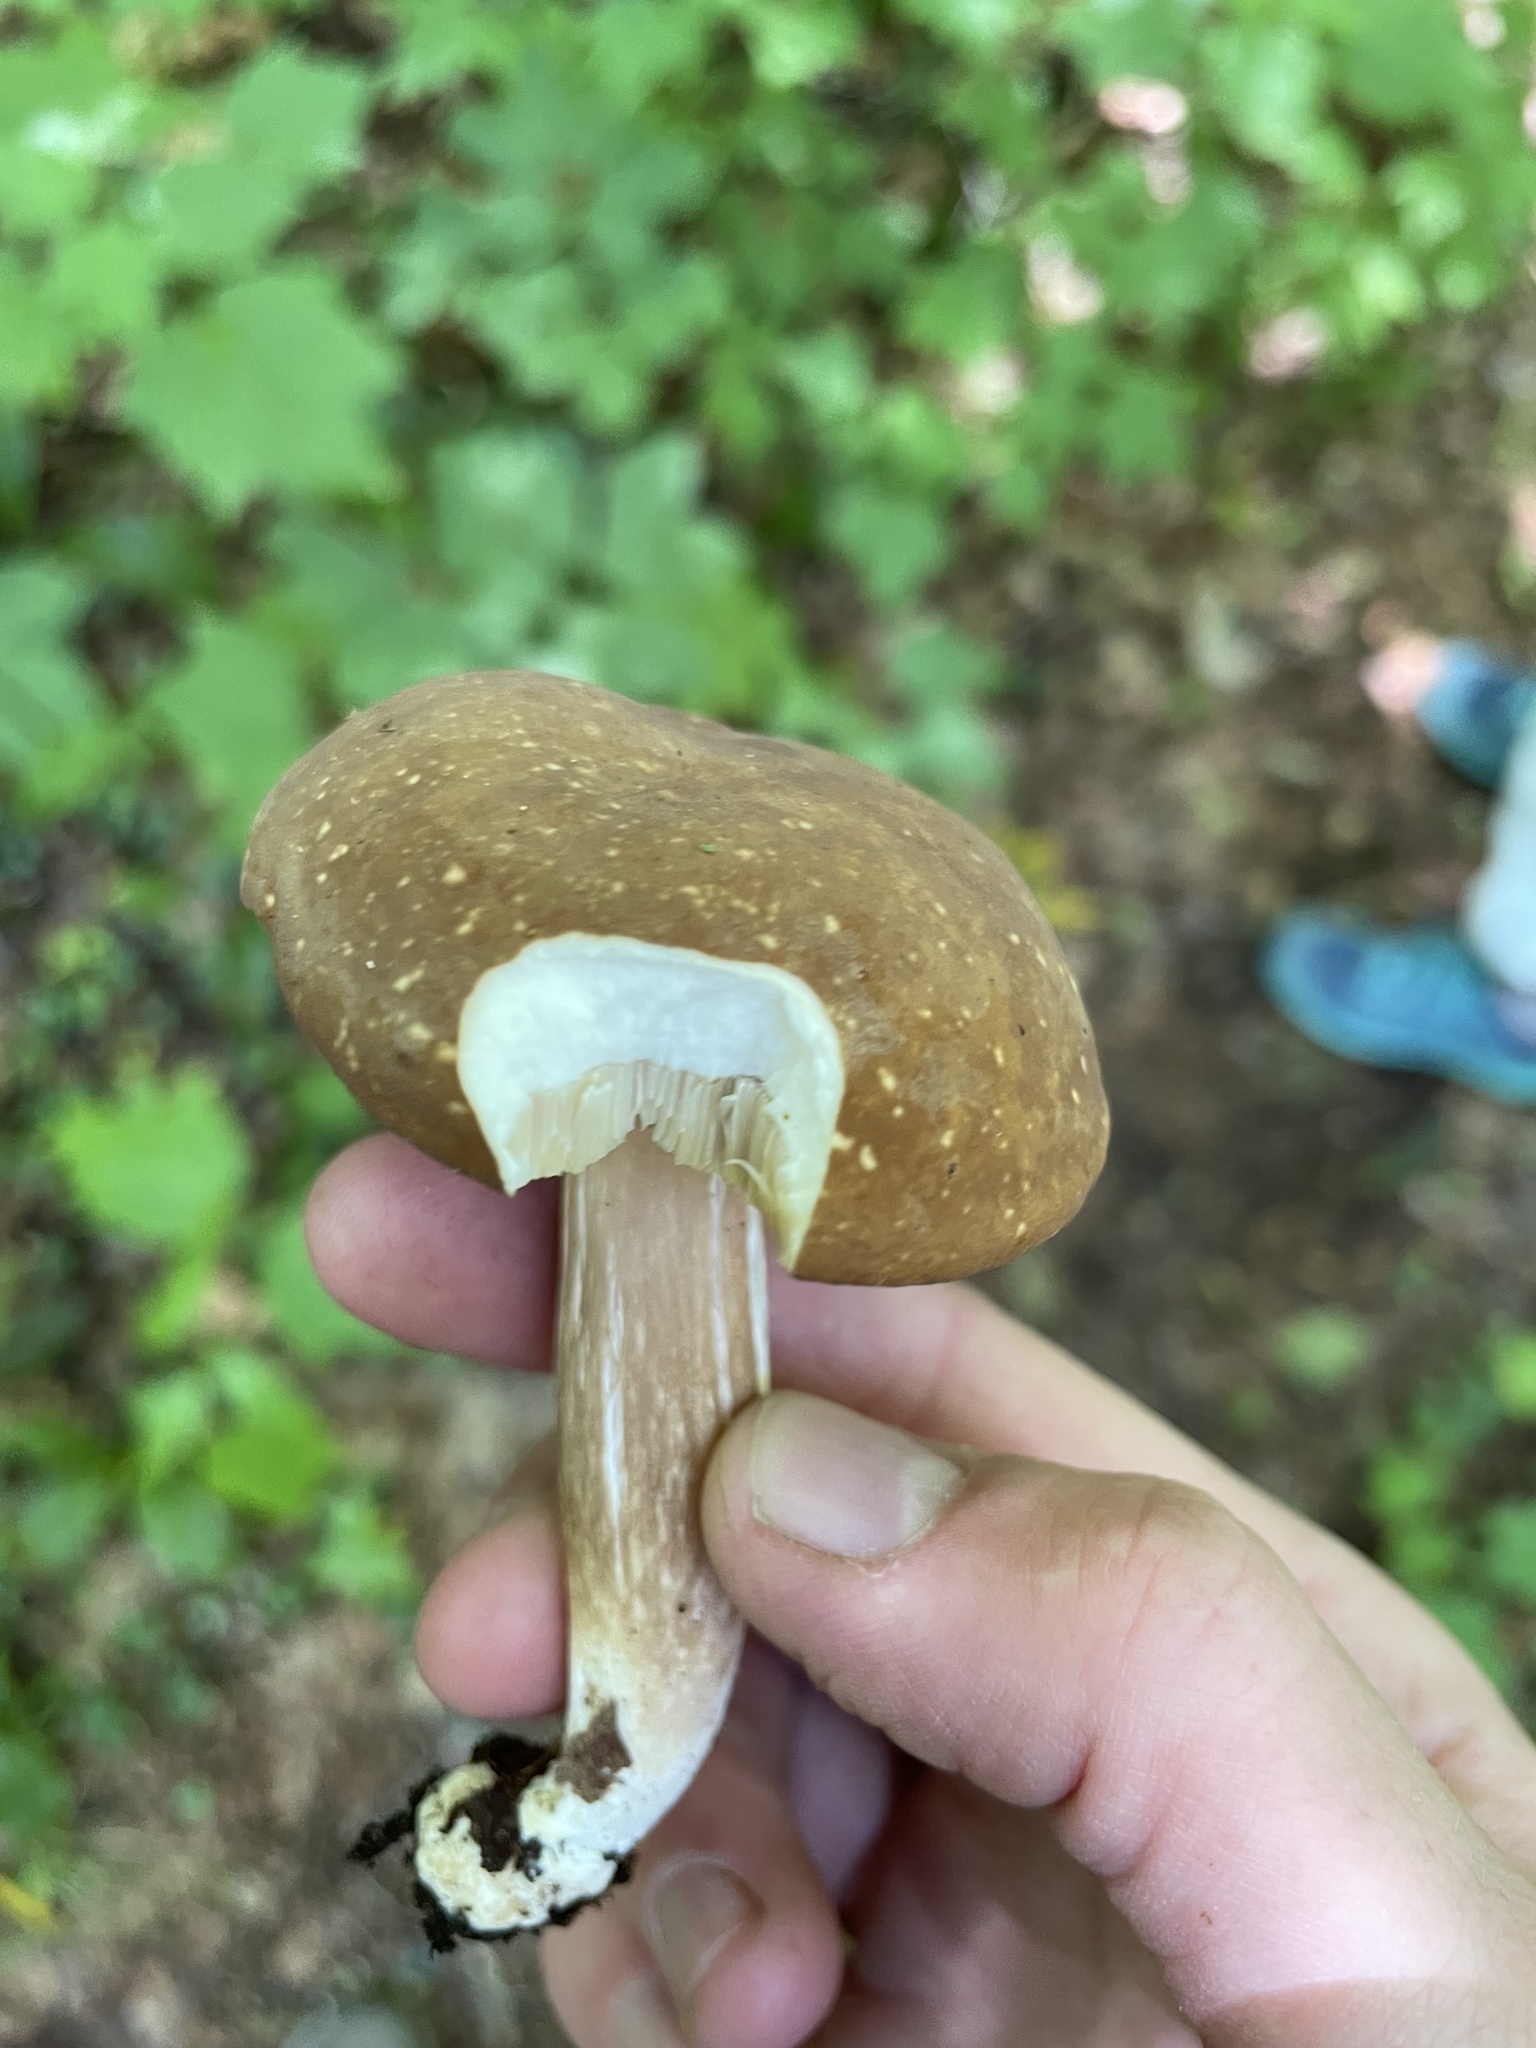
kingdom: Fungi
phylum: Basidiomycota
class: Agaricomycetes
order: Boletales
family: Boletaceae
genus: Xanthoconium
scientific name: Xanthoconium affine
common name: Spotted bolete
